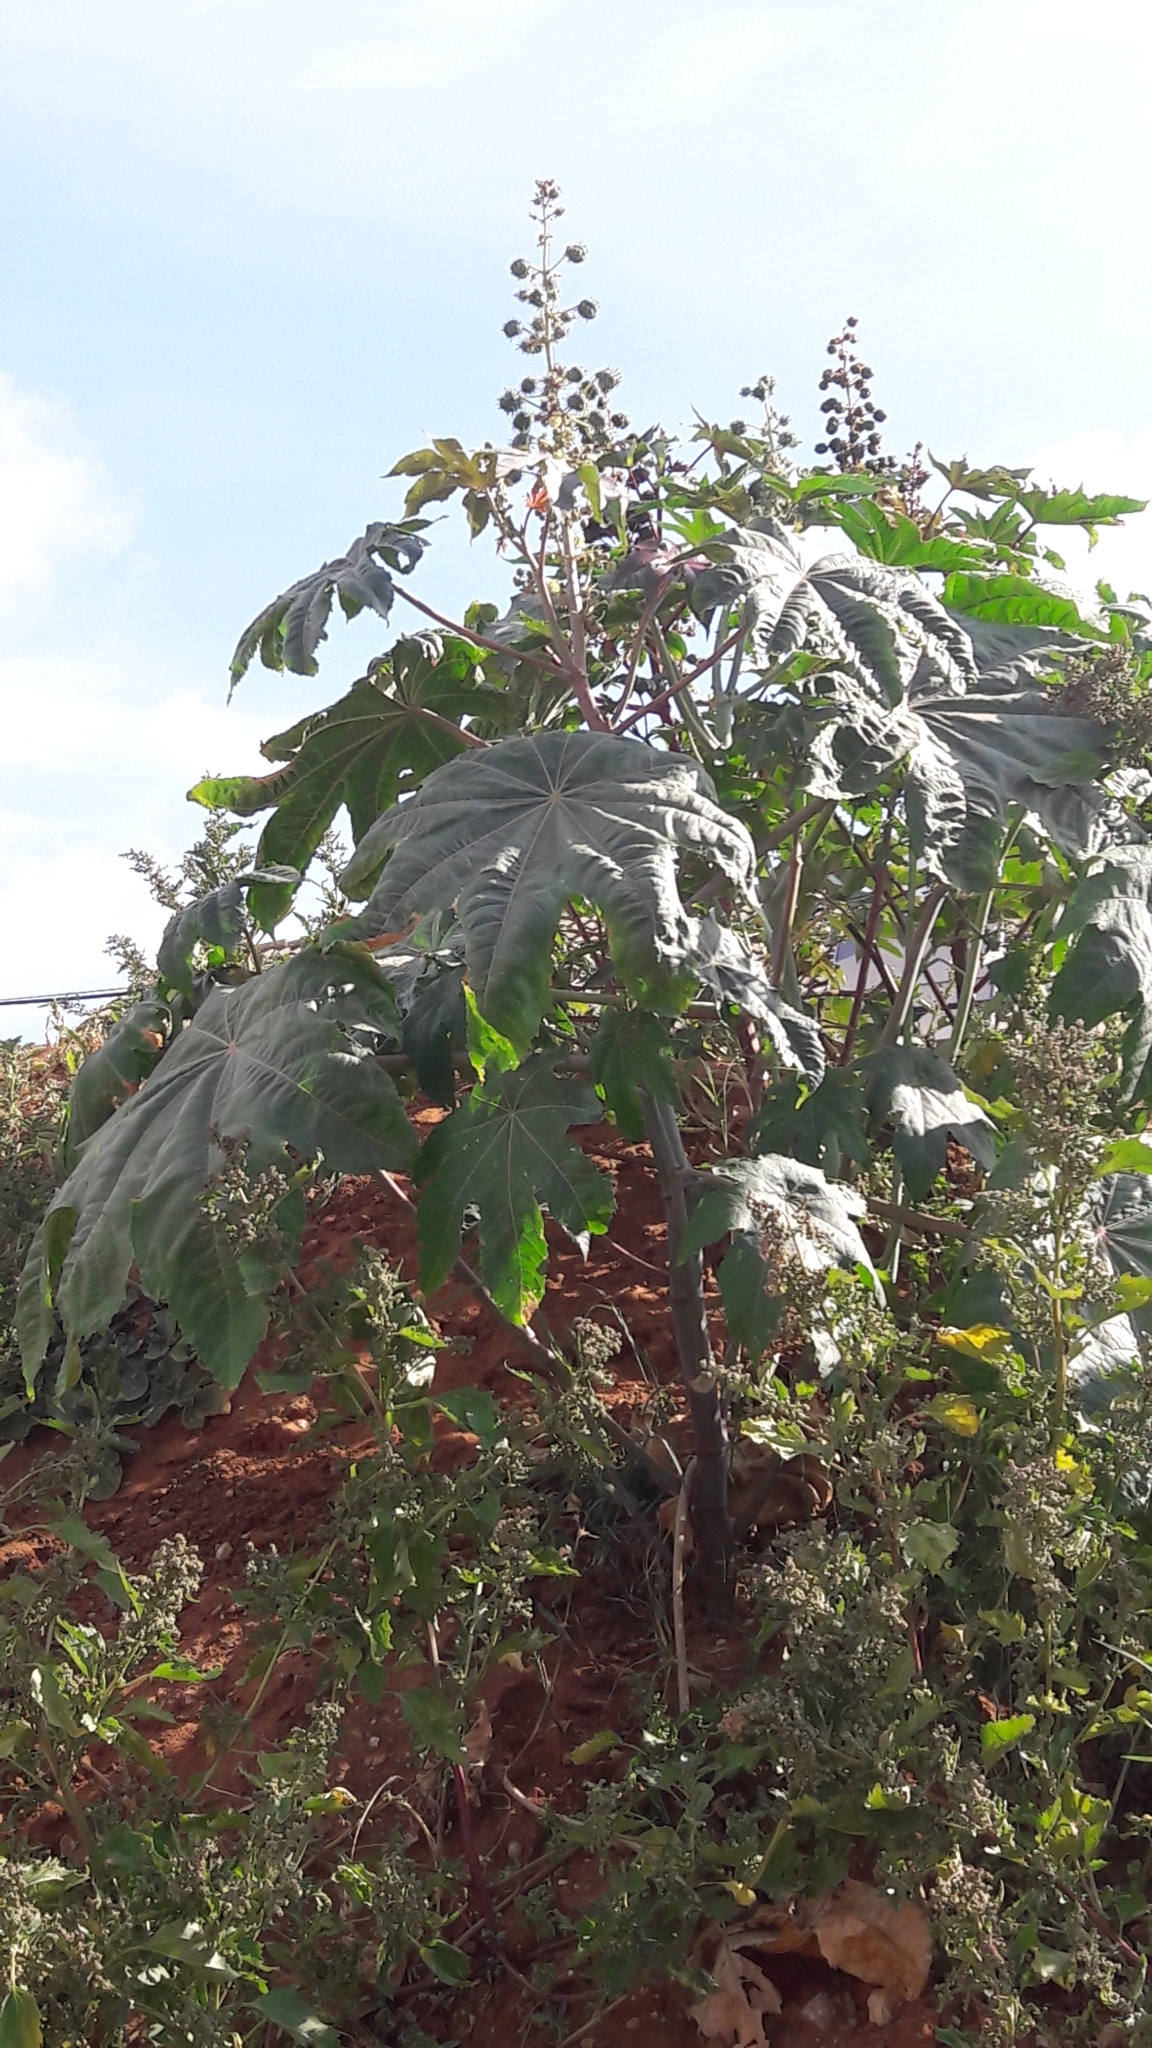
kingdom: Plantae
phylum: Tracheophyta
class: Magnoliopsida
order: Malpighiales
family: Euphorbiaceae
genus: Ricinus
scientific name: Ricinus communis
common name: Castor-oil-plant
